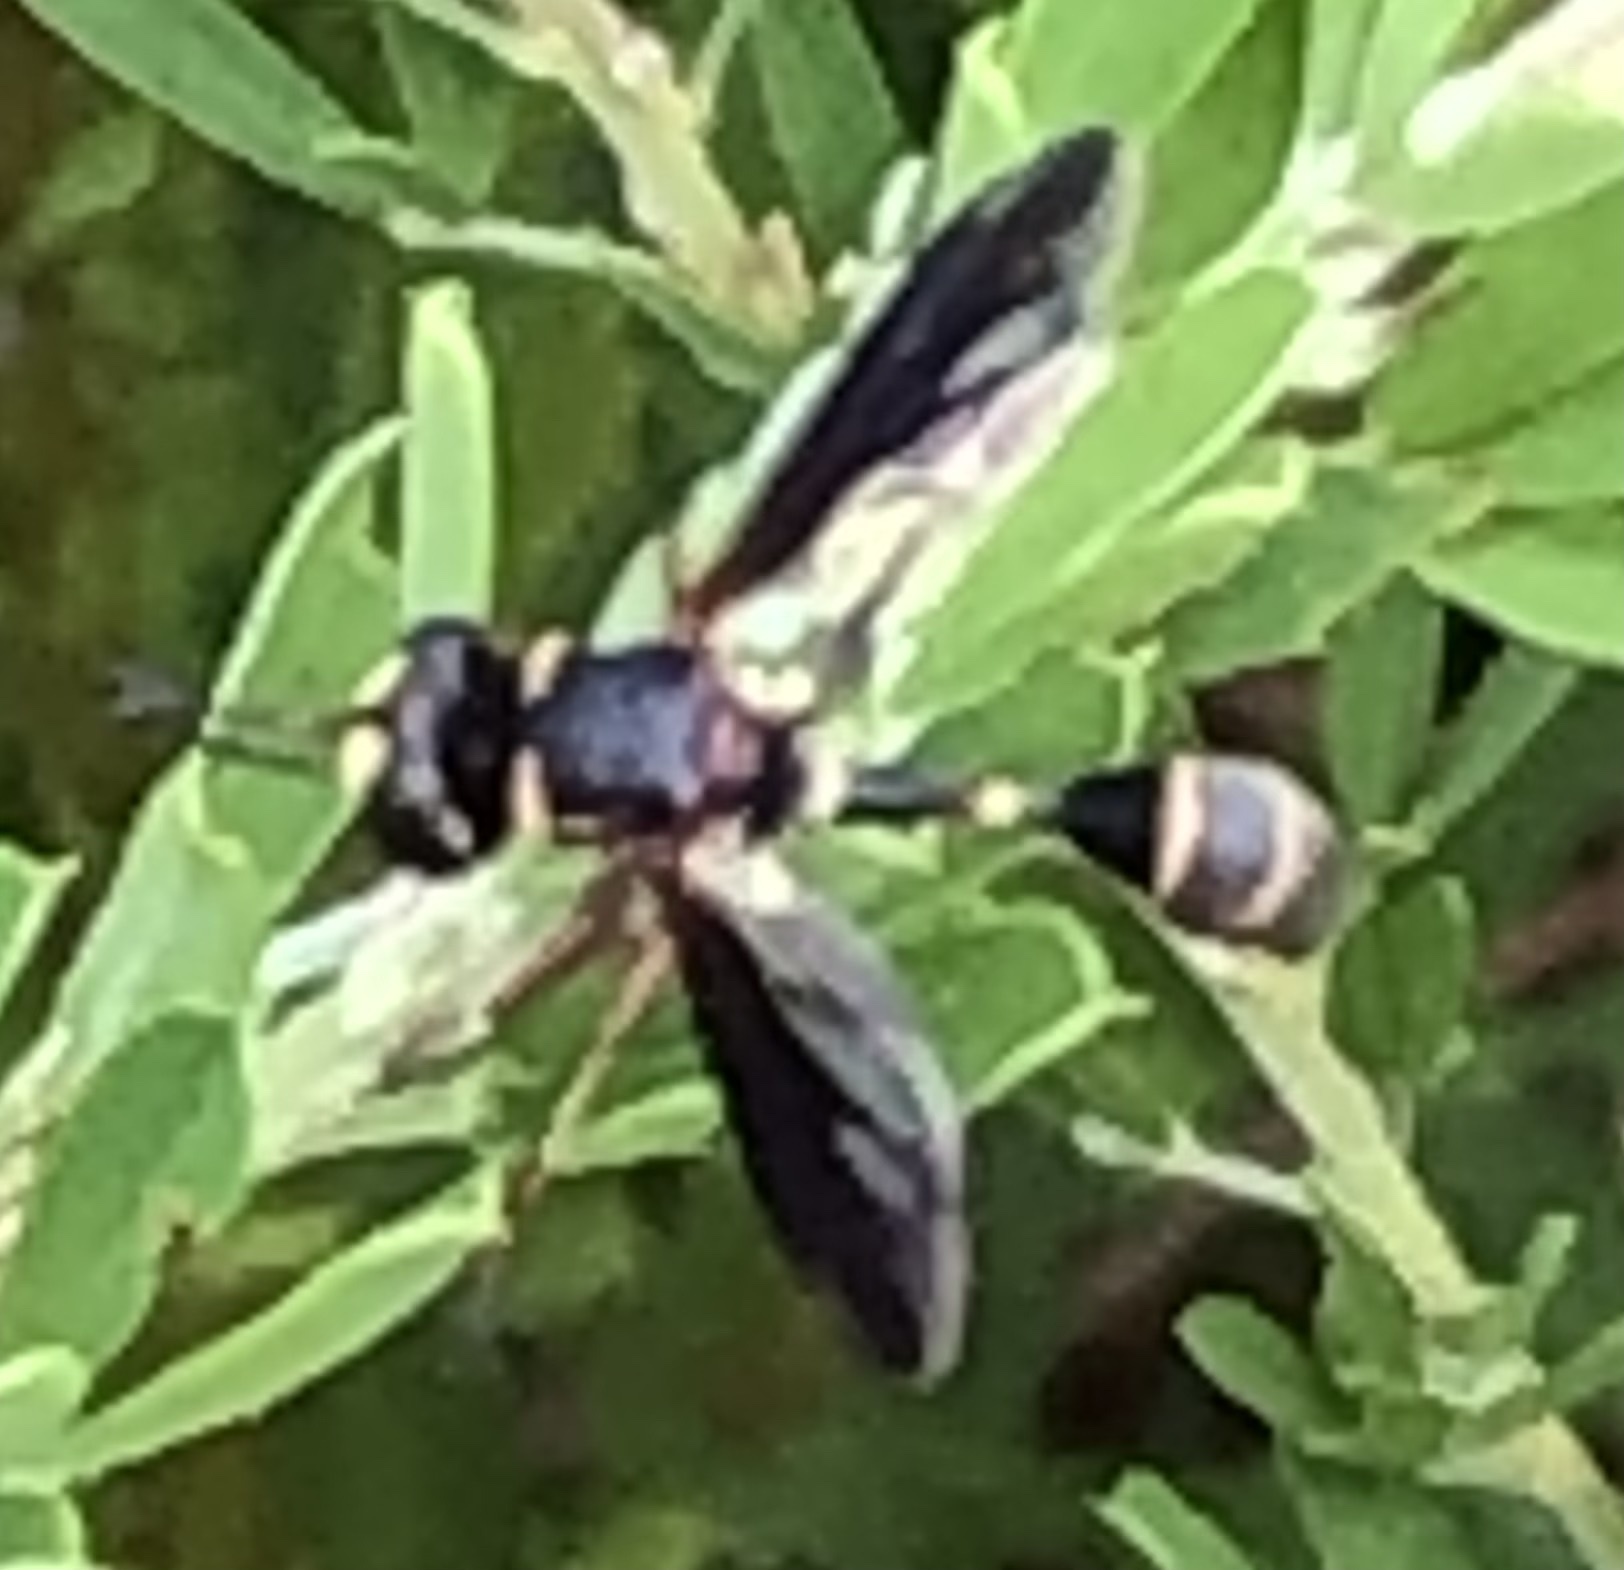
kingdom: Animalia
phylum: Arthropoda
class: Insecta
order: Diptera
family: Conopidae
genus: Physocephala
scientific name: Physocephala marginata
